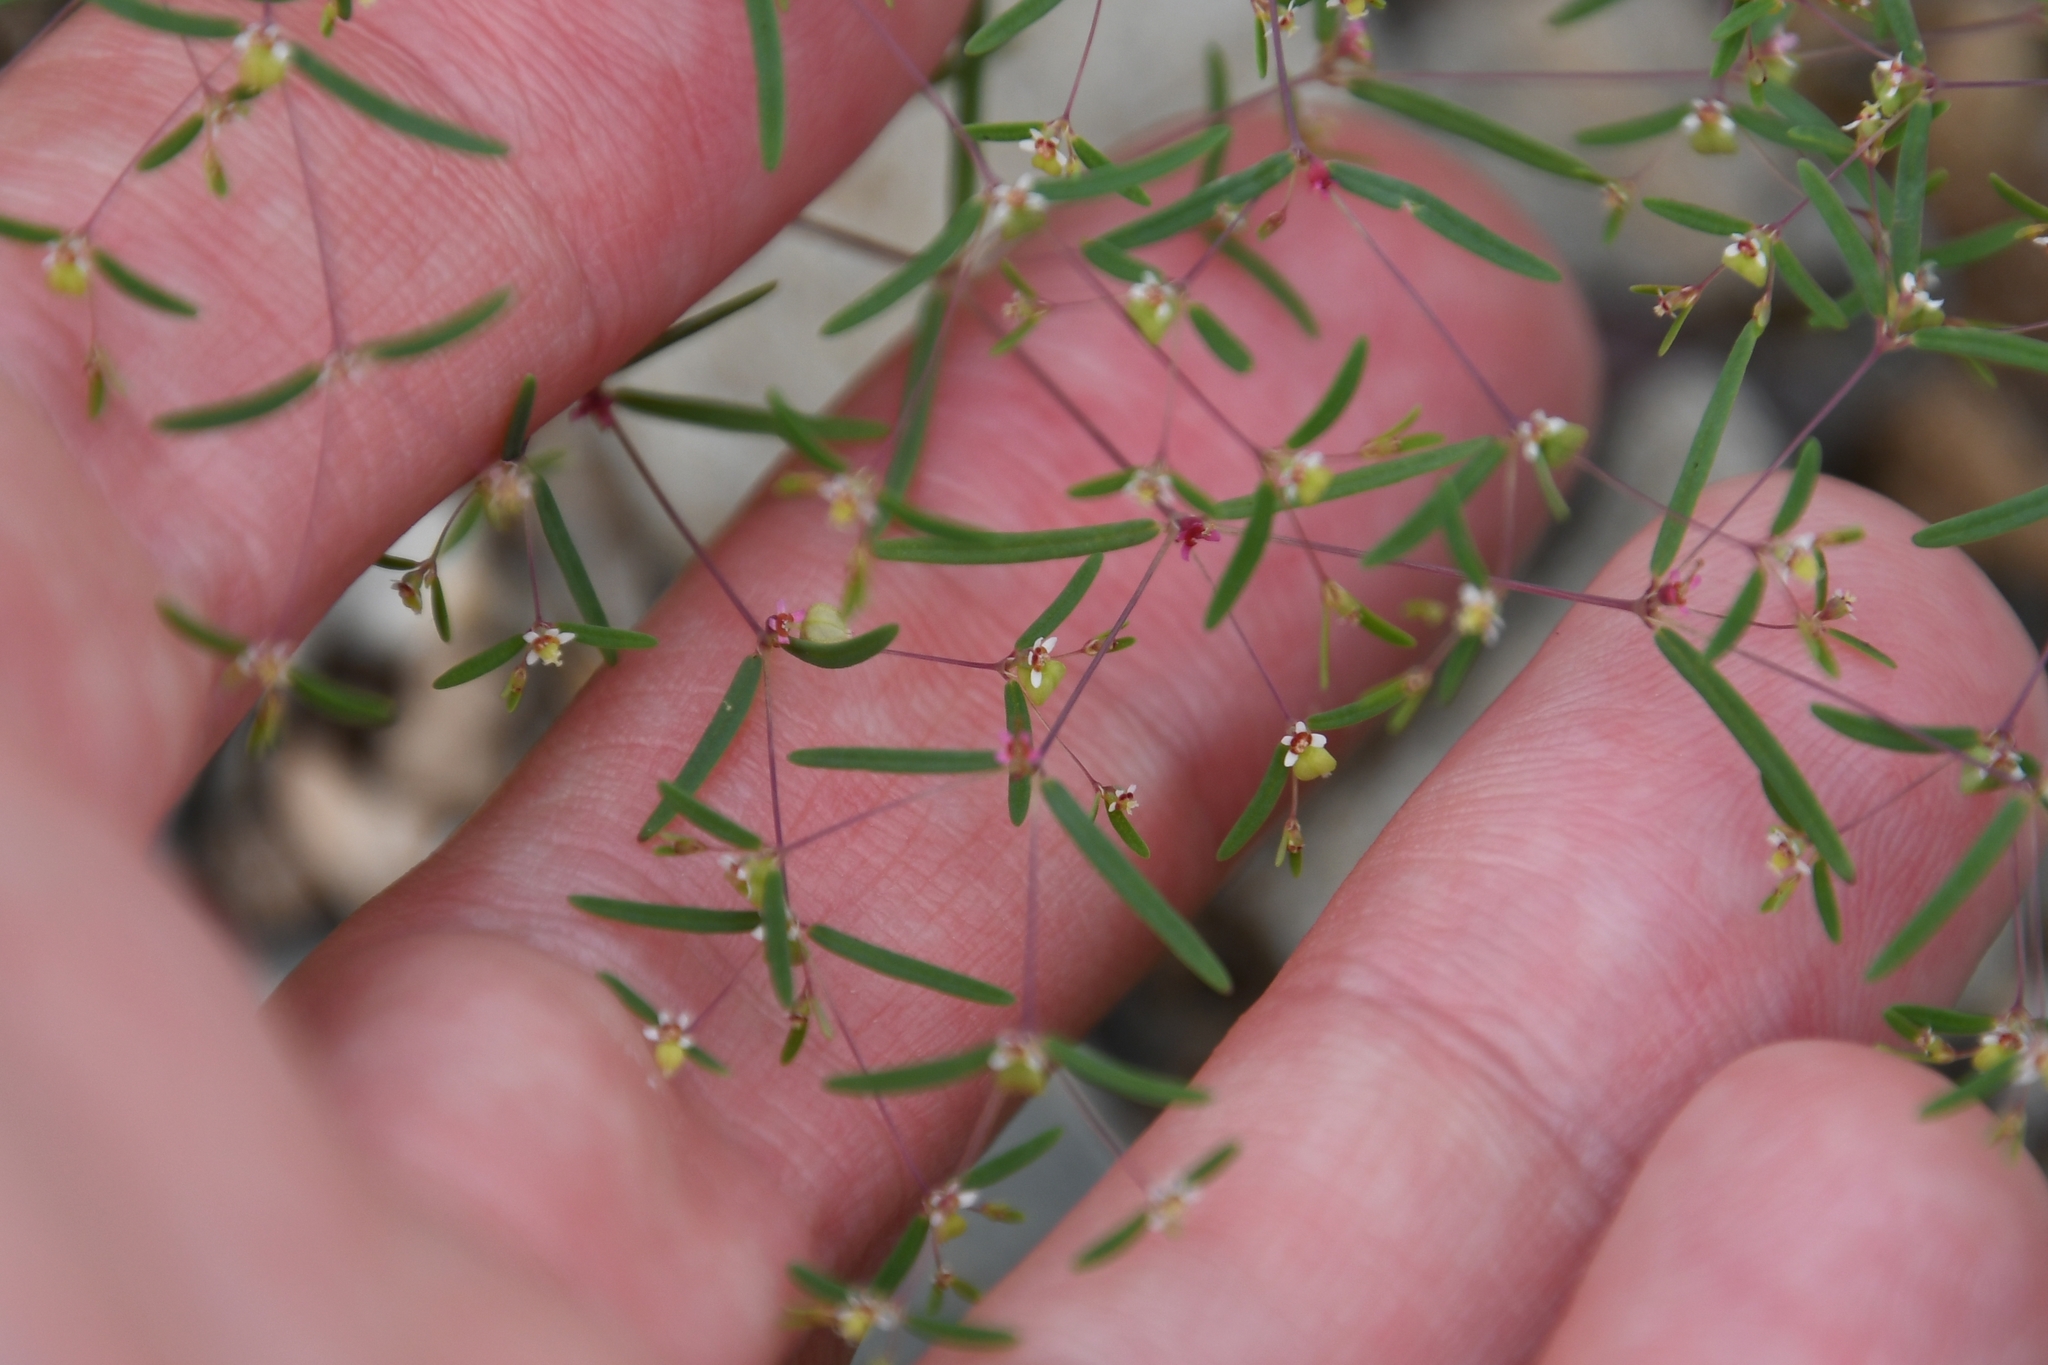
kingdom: Plantae
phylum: Tracheophyta
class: Magnoliopsida
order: Malpighiales
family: Euphorbiaceae
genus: Euphorbia
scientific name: Euphorbia gracillima
